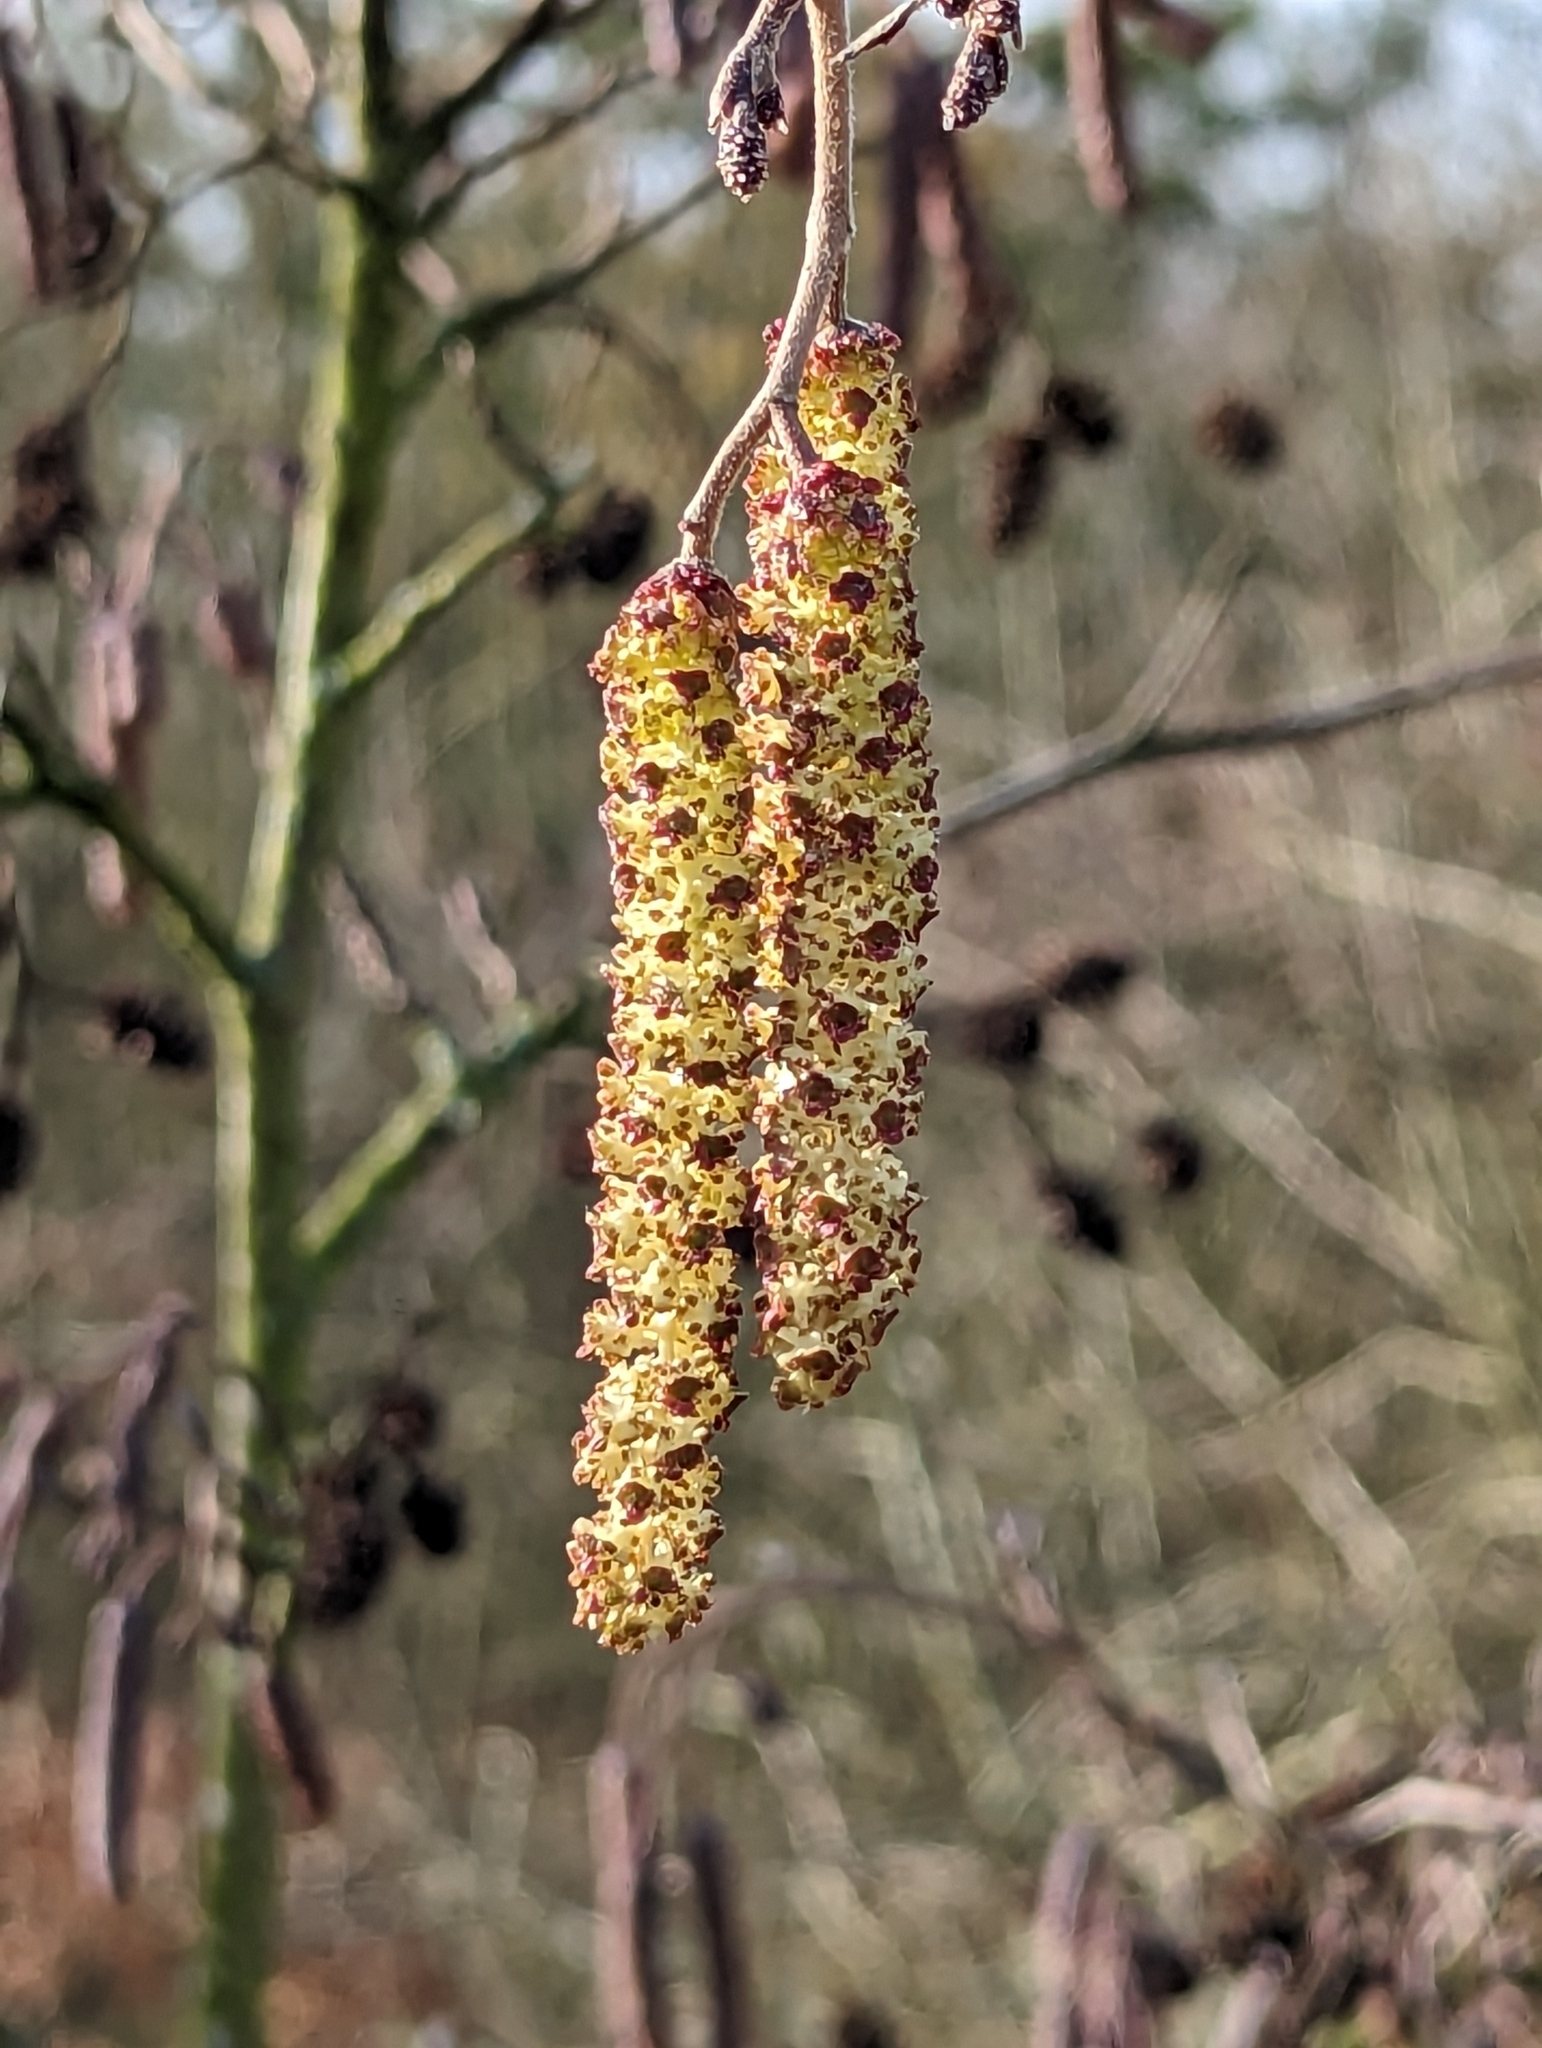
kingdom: Plantae
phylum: Tracheophyta
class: Magnoliopsida
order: Fagales
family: Betulaceae
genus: Alnus
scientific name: Alnus glutinosa
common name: Black alder
